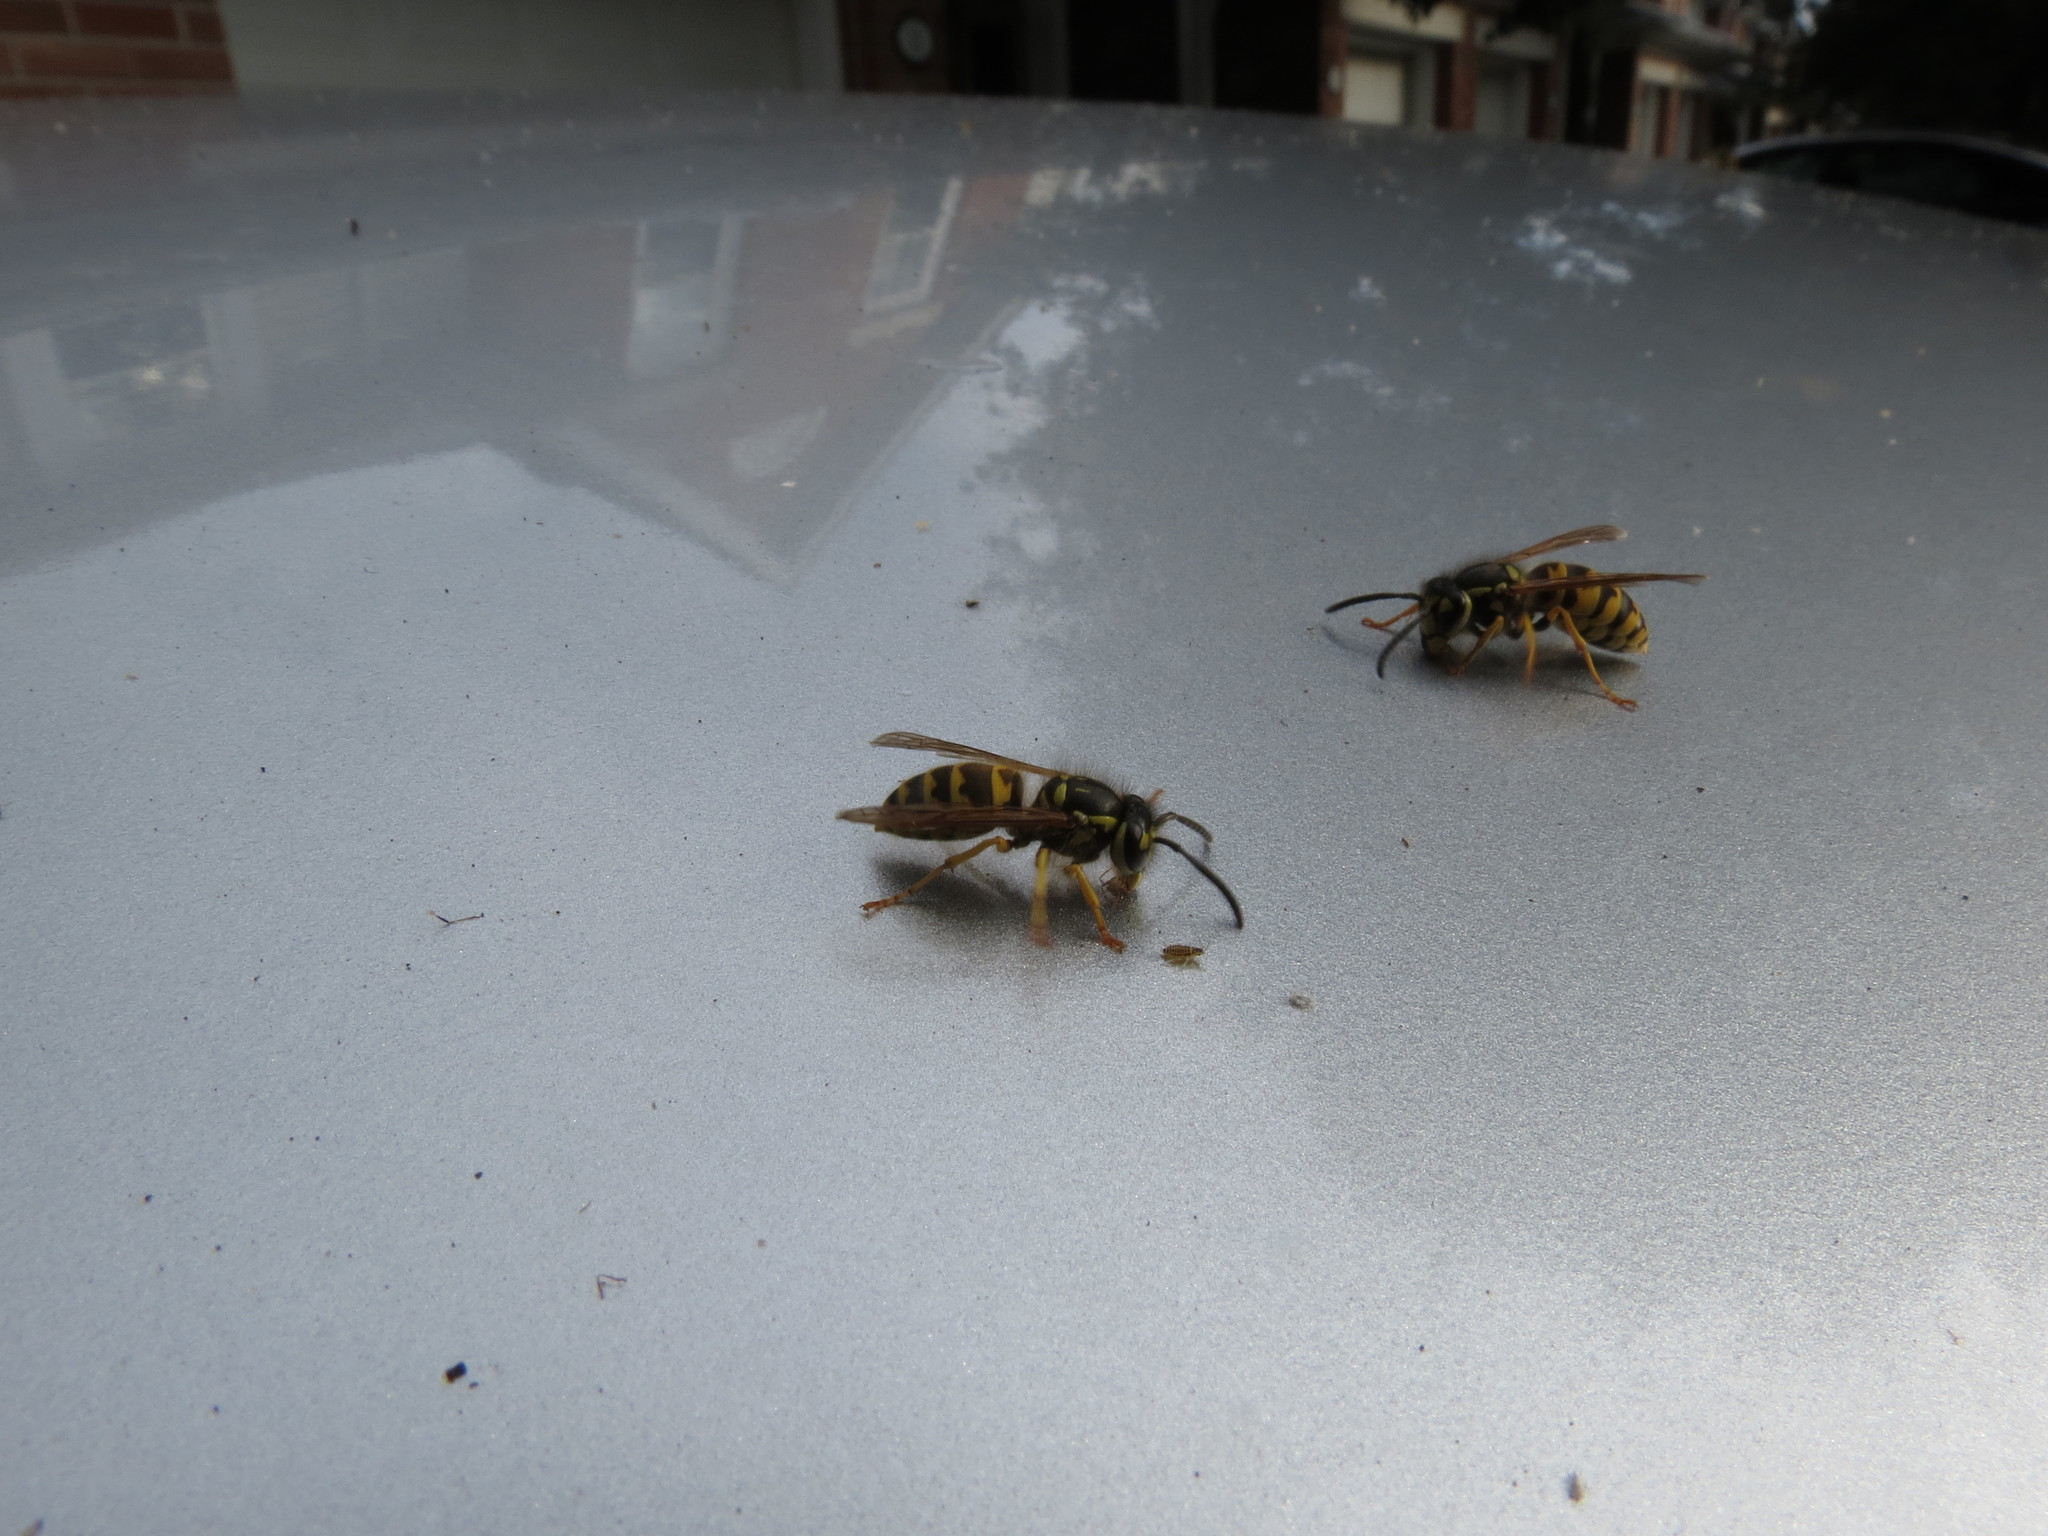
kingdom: Animalia
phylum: Arthropoda
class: Insecta
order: Hymenoptera
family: Vespidae
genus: Vespula
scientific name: Vespula flavopilosa
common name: Downy yellowjacket
